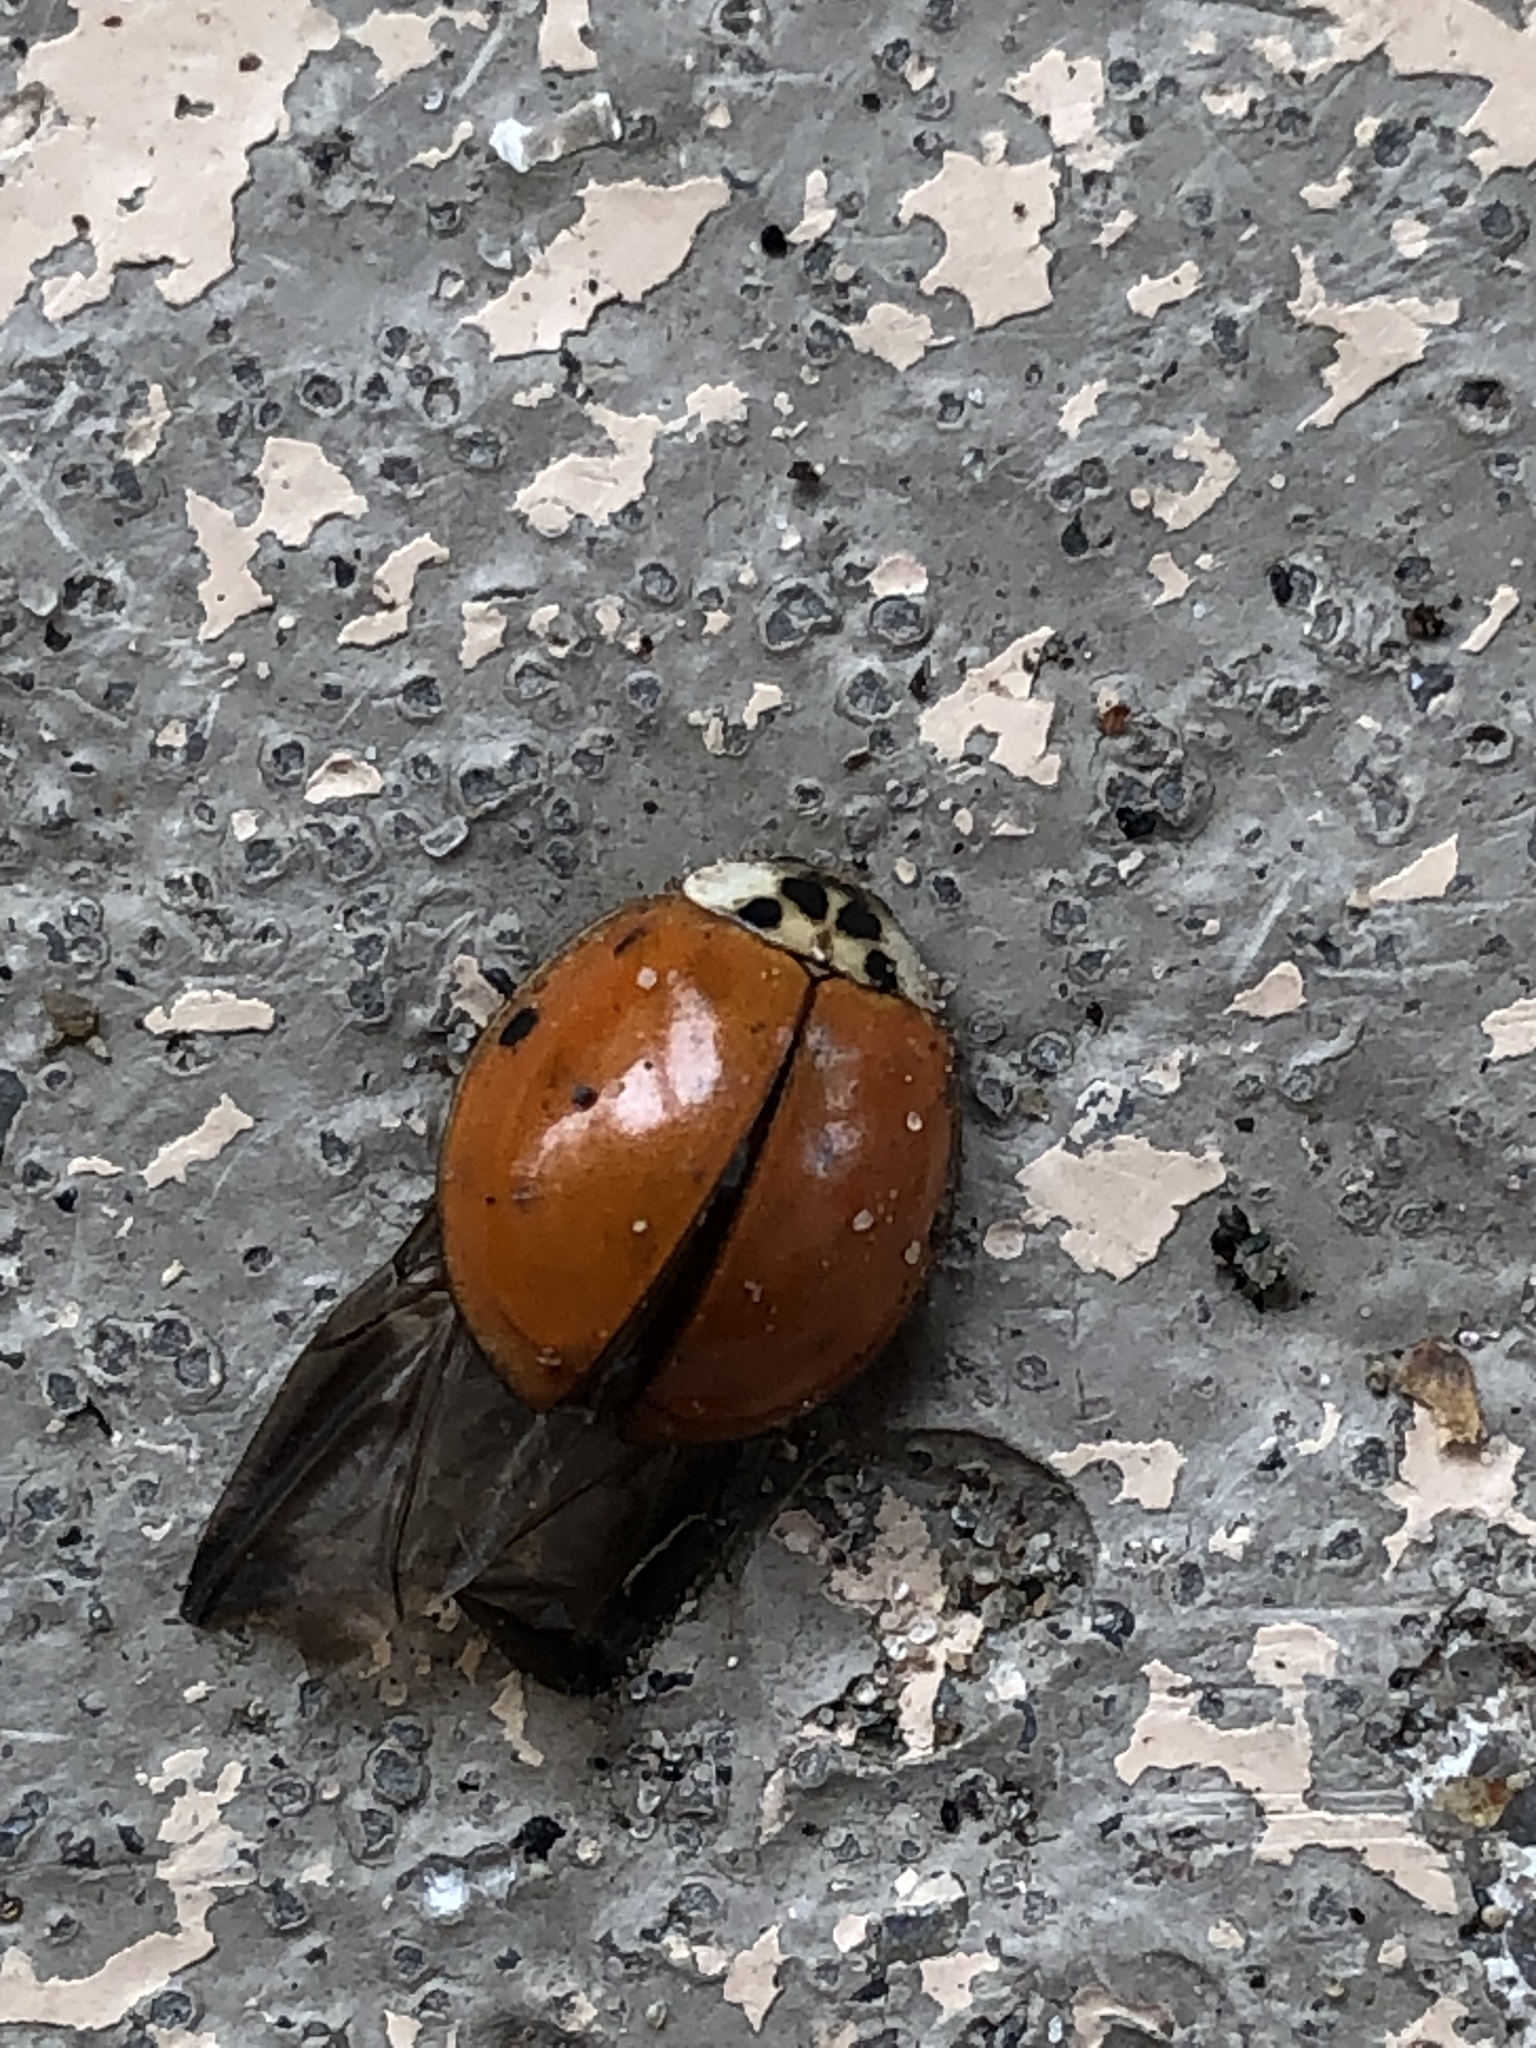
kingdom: Animalia
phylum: Arthropoda
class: Insecta
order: Coleoptera
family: Coccinellidae
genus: Harmonia
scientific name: Harmonia axyridis
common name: Harlequin ladybird
